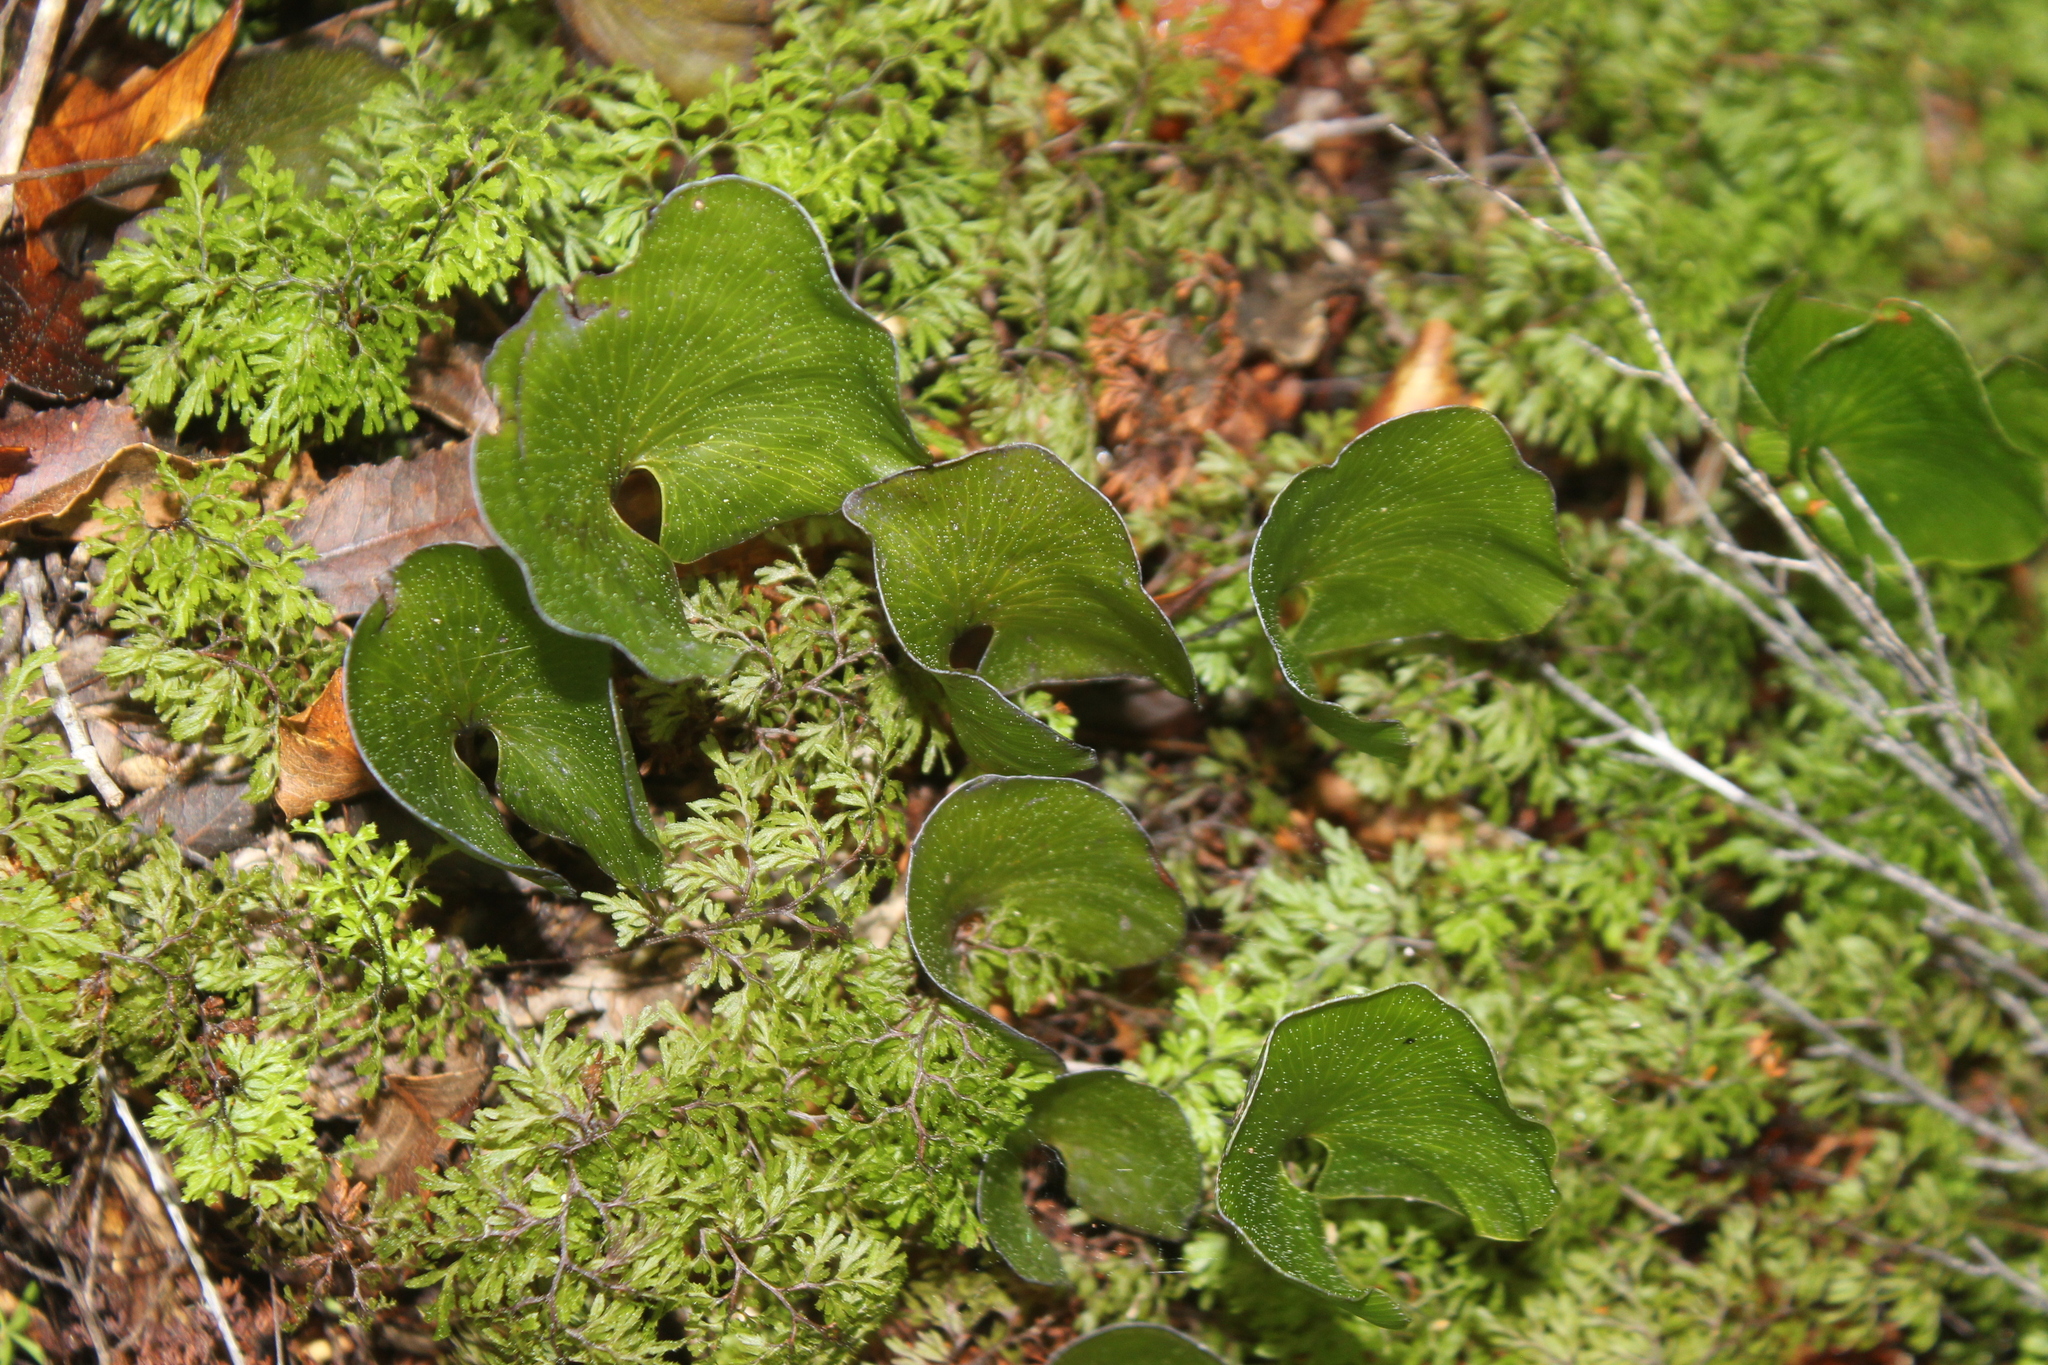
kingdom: Plantae
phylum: Tracheophyta
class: Polypodiopsida
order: Hymenophyllales
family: Hymenophyllaceae
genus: Hymenophyllum
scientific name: Hymenophyllum nephrophyllum
